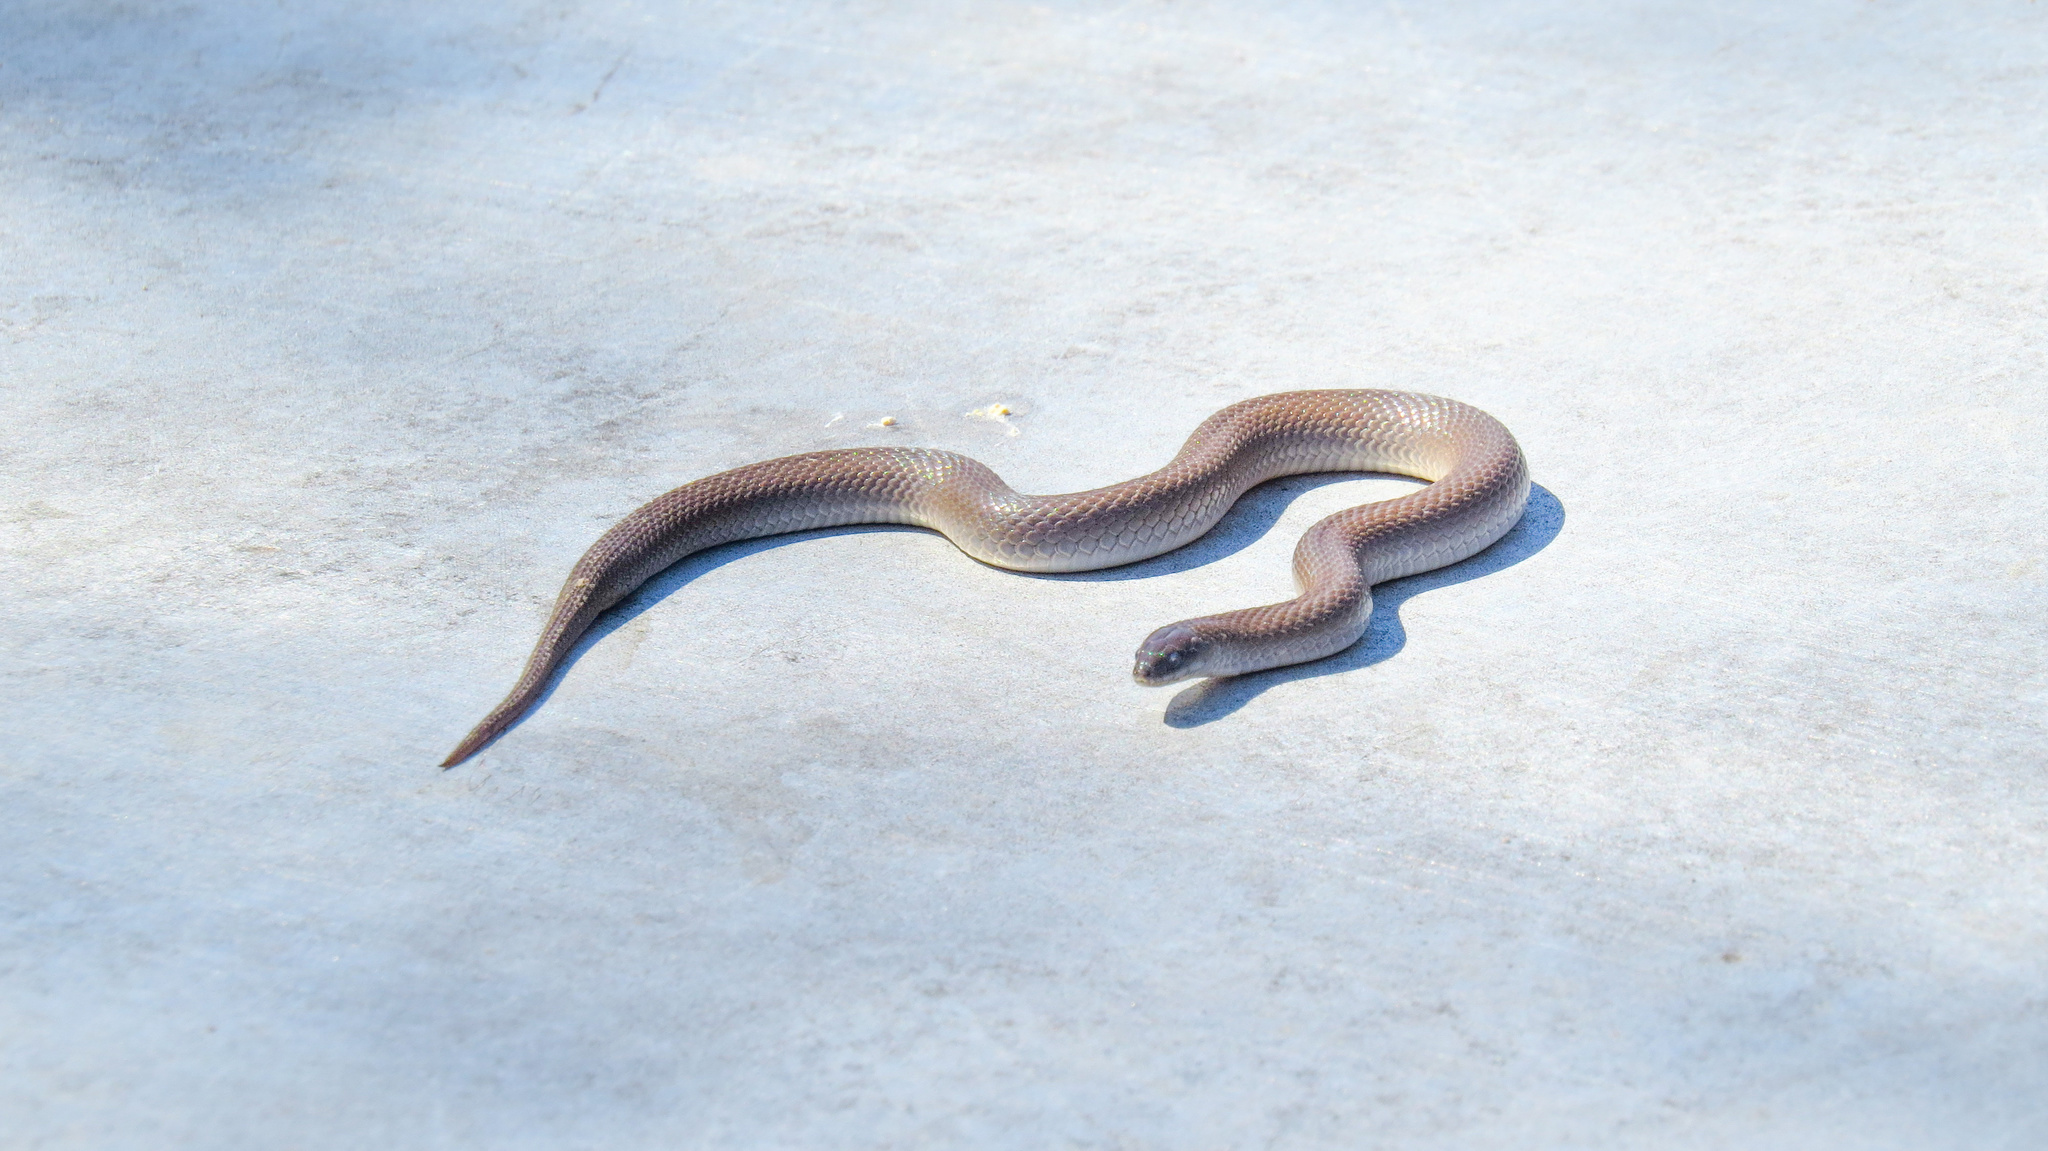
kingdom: Animalia
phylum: Chordata
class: Squamata
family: Colubridae
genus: Haldea
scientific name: Haldea striatula
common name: Rough earth snake
